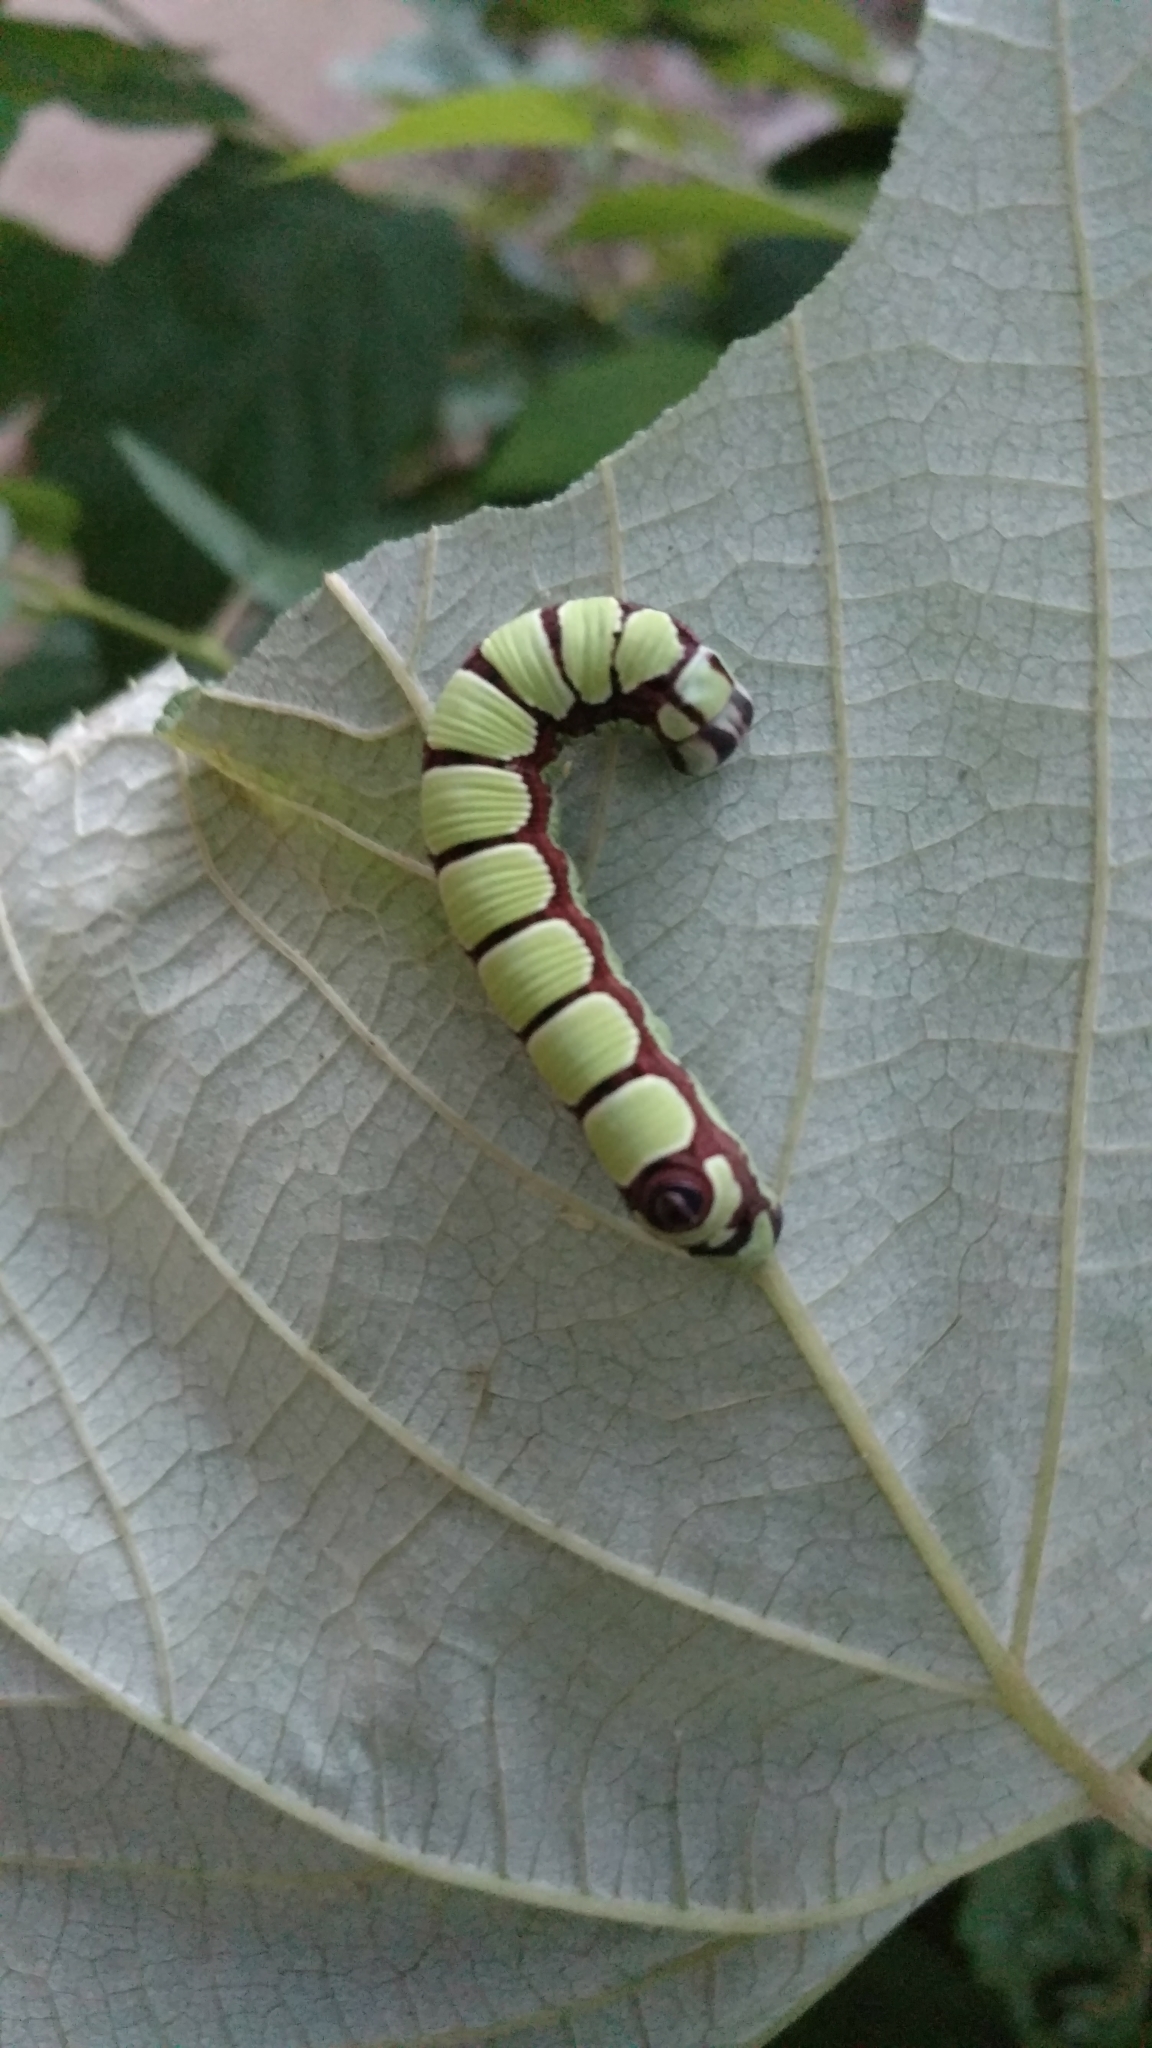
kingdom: Animalia
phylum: Arthropoda
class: Insecta
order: Lepidoptera
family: Sphingidae
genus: Sphecodina
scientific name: Sphecodina abbottii
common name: Abbott's sphinx
